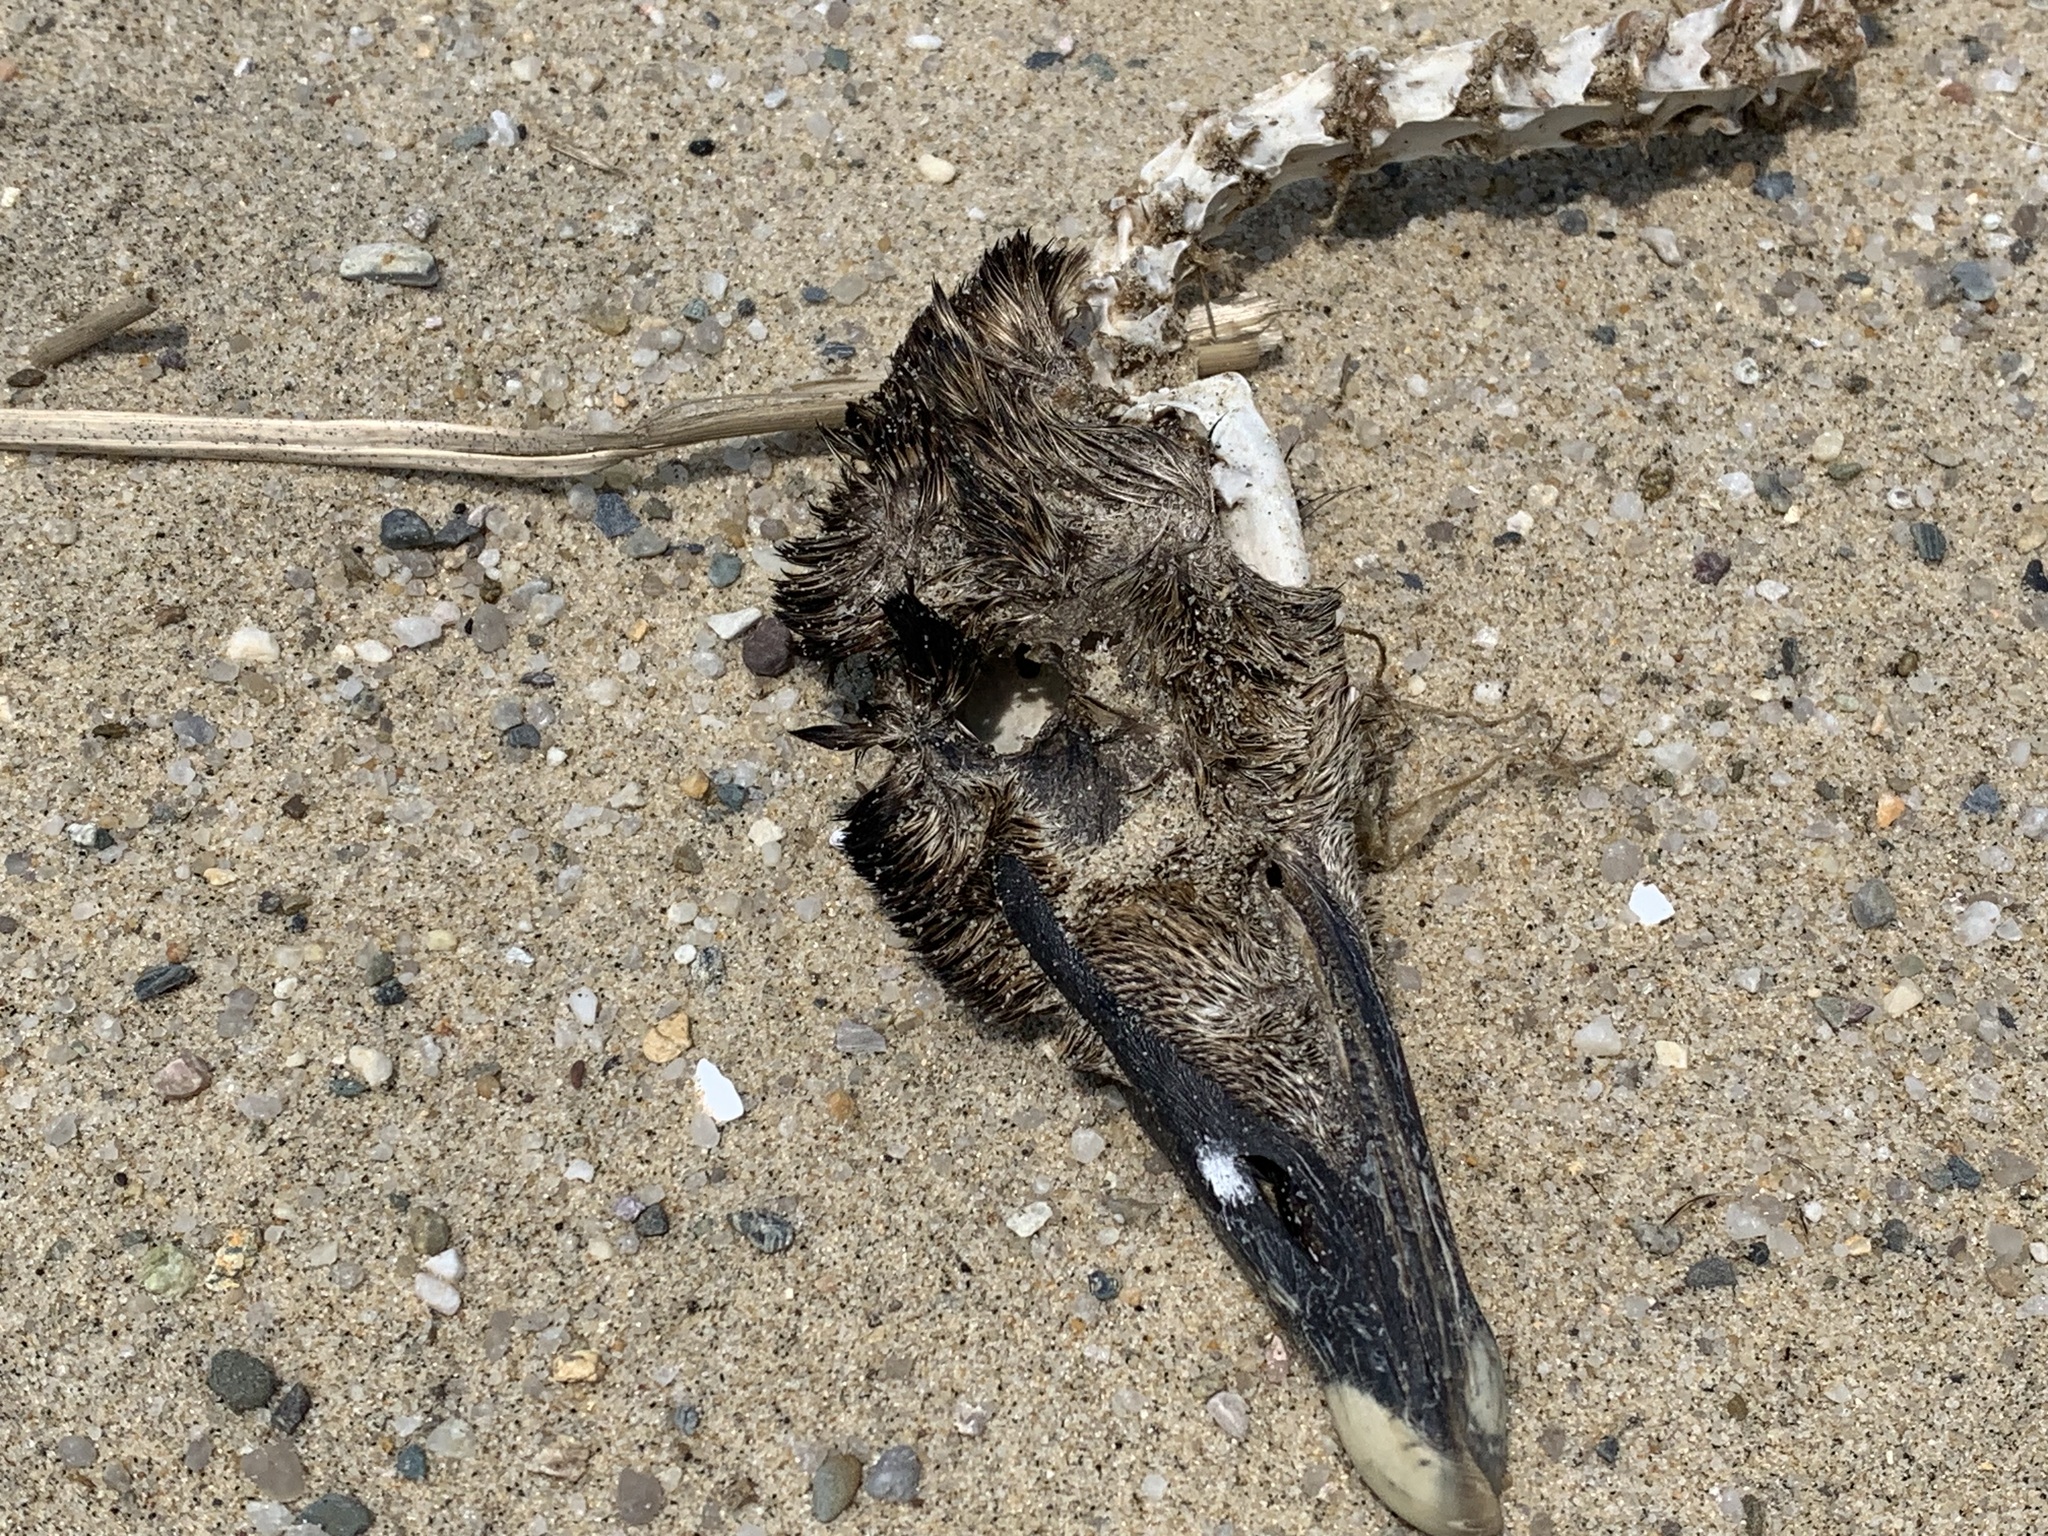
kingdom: Animalia
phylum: Chordata
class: Aves
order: Anseriformes
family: Anatidae
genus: Somateria
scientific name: Somateria mollissima
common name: Common eider
